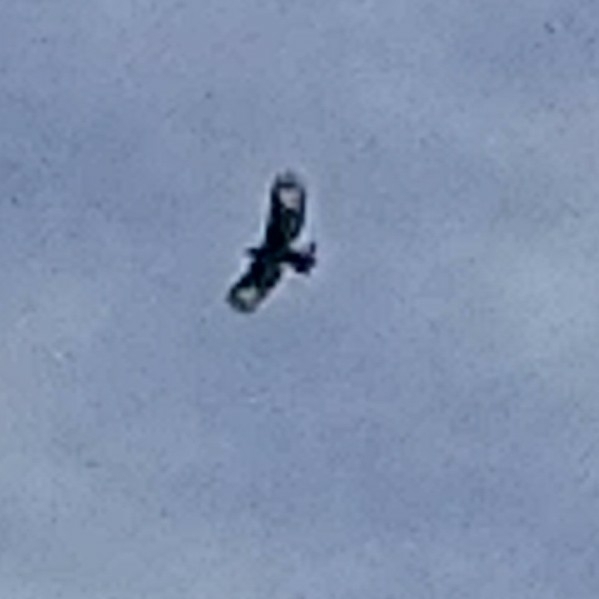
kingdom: Animalia
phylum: Chordata
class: Aves
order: Accipitriformes
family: Accipitridae
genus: Lophaetus
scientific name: Lophaetus occipitalis
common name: Long-crested eagle
